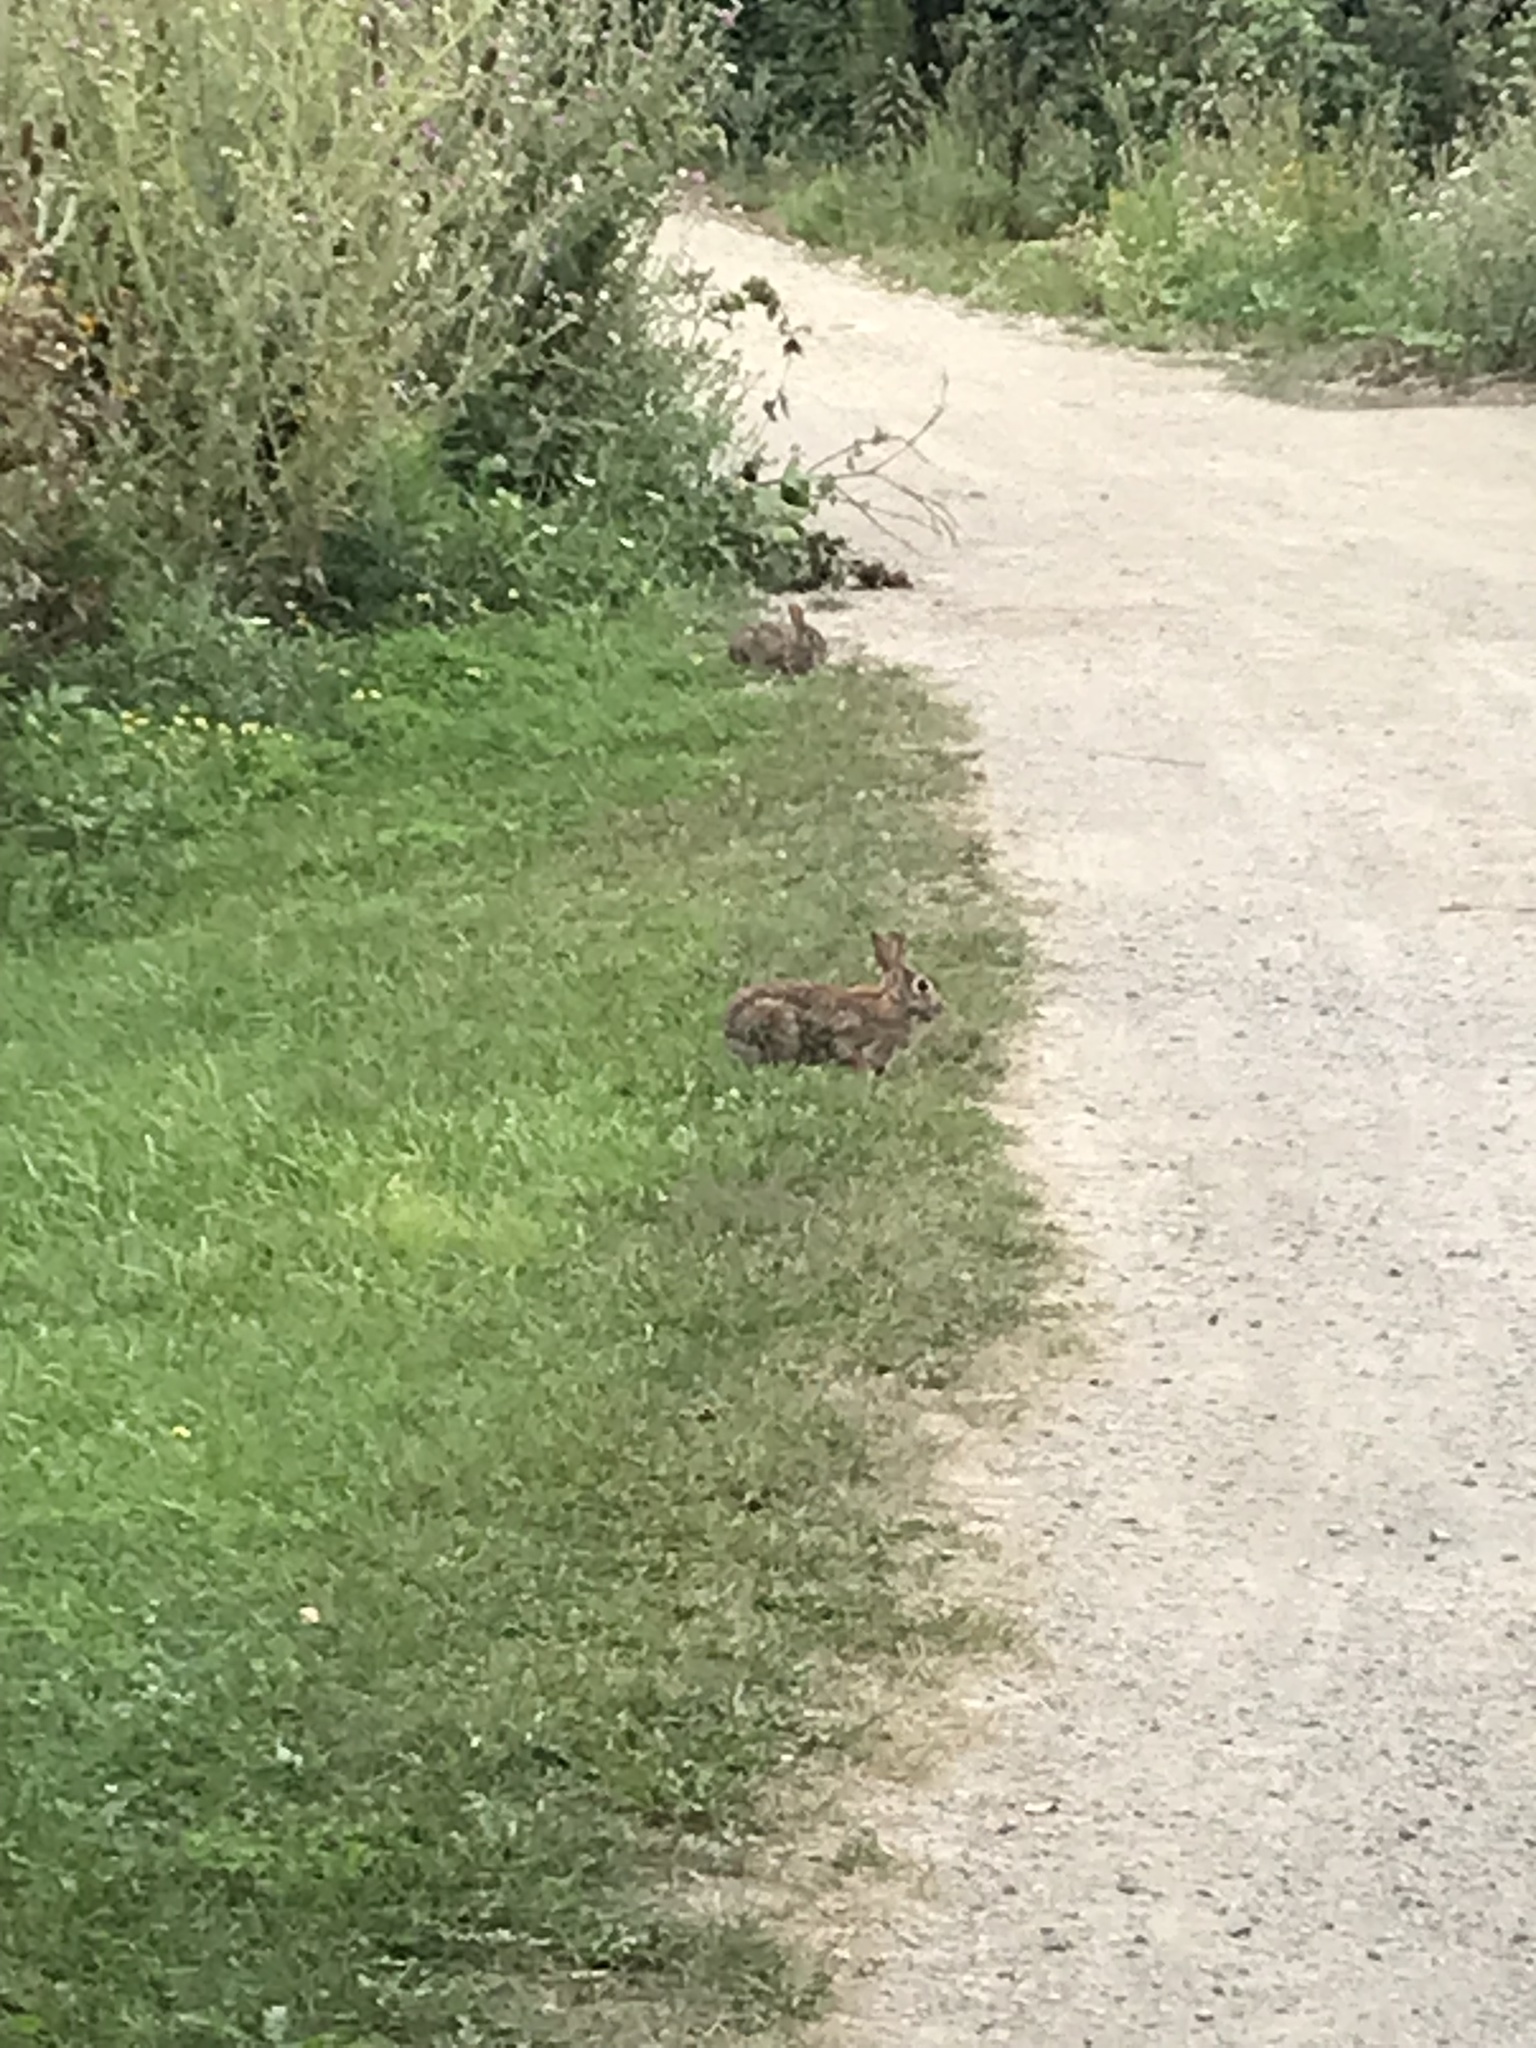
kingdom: Animalia
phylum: Chordata
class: Mammalia
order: Lagomorpha
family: Leporidae
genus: Sylvilagus
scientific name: Sylvilagus floridanus
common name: Eastern cottontail
